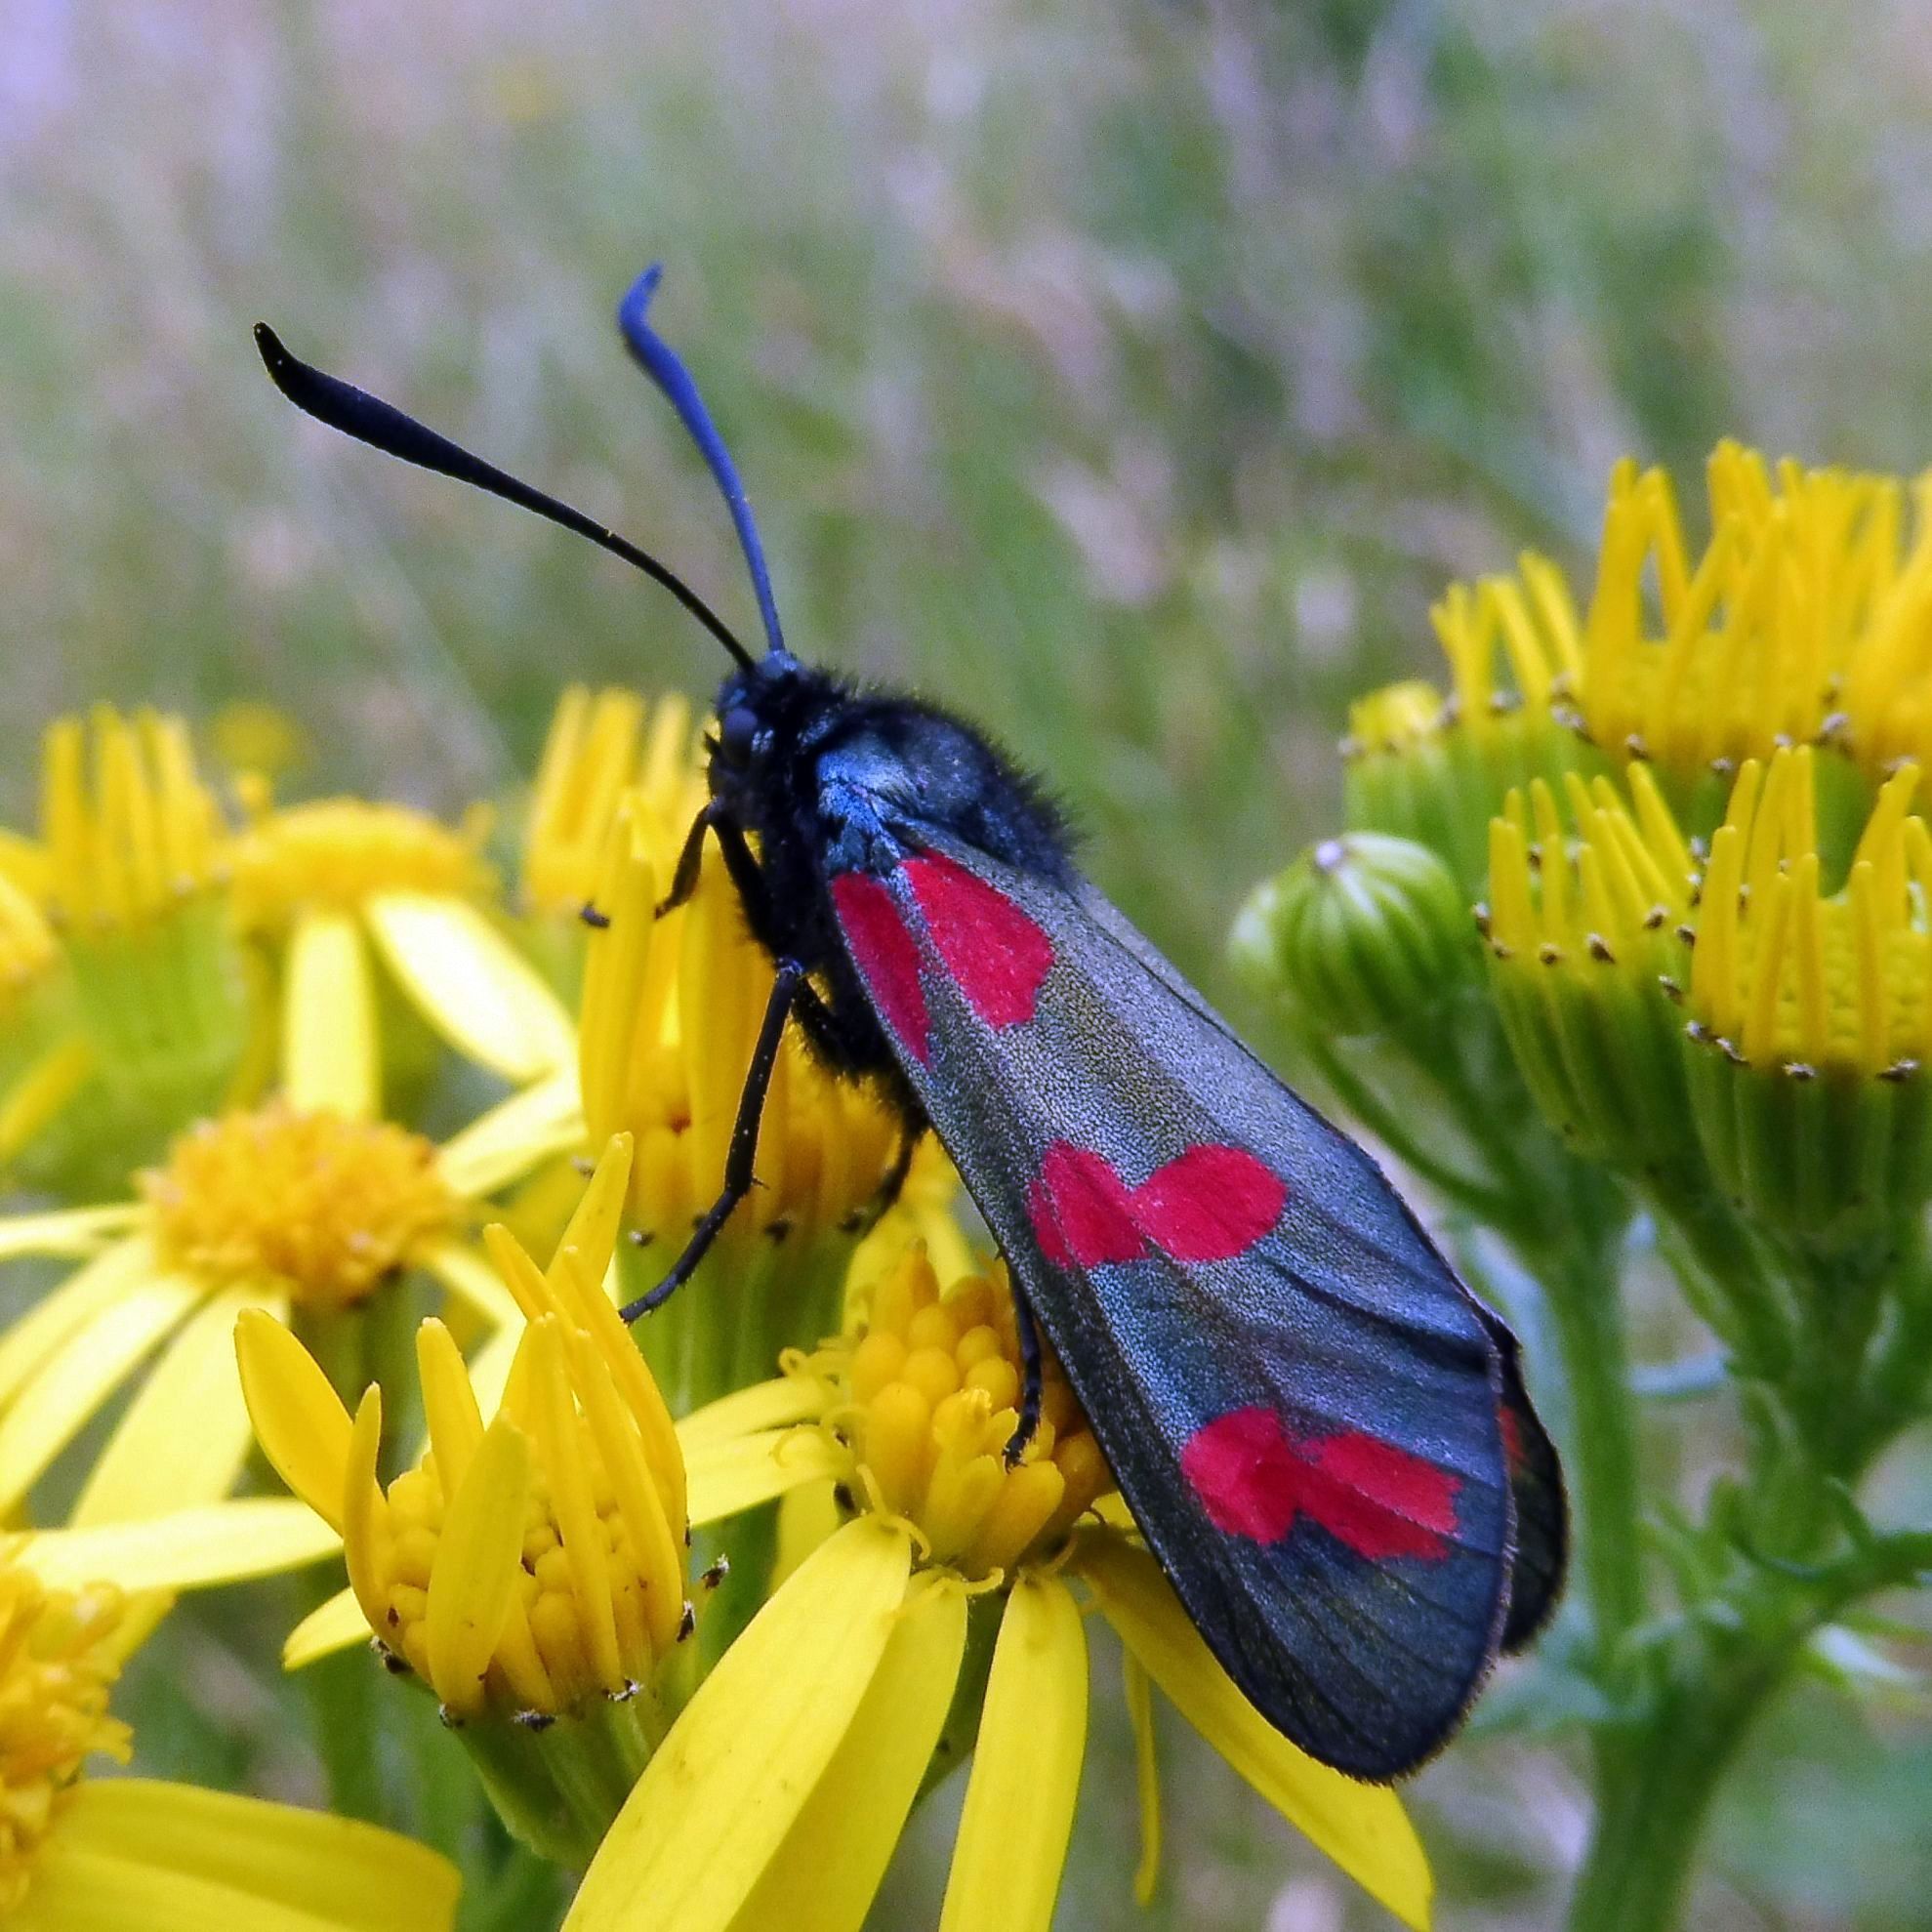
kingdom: Animalia
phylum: Arthropoda
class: Insecta
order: Lepidoptera
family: Zygaenidae
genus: Zygaena
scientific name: Zygaena filipendulae
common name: Six-spot burnet
